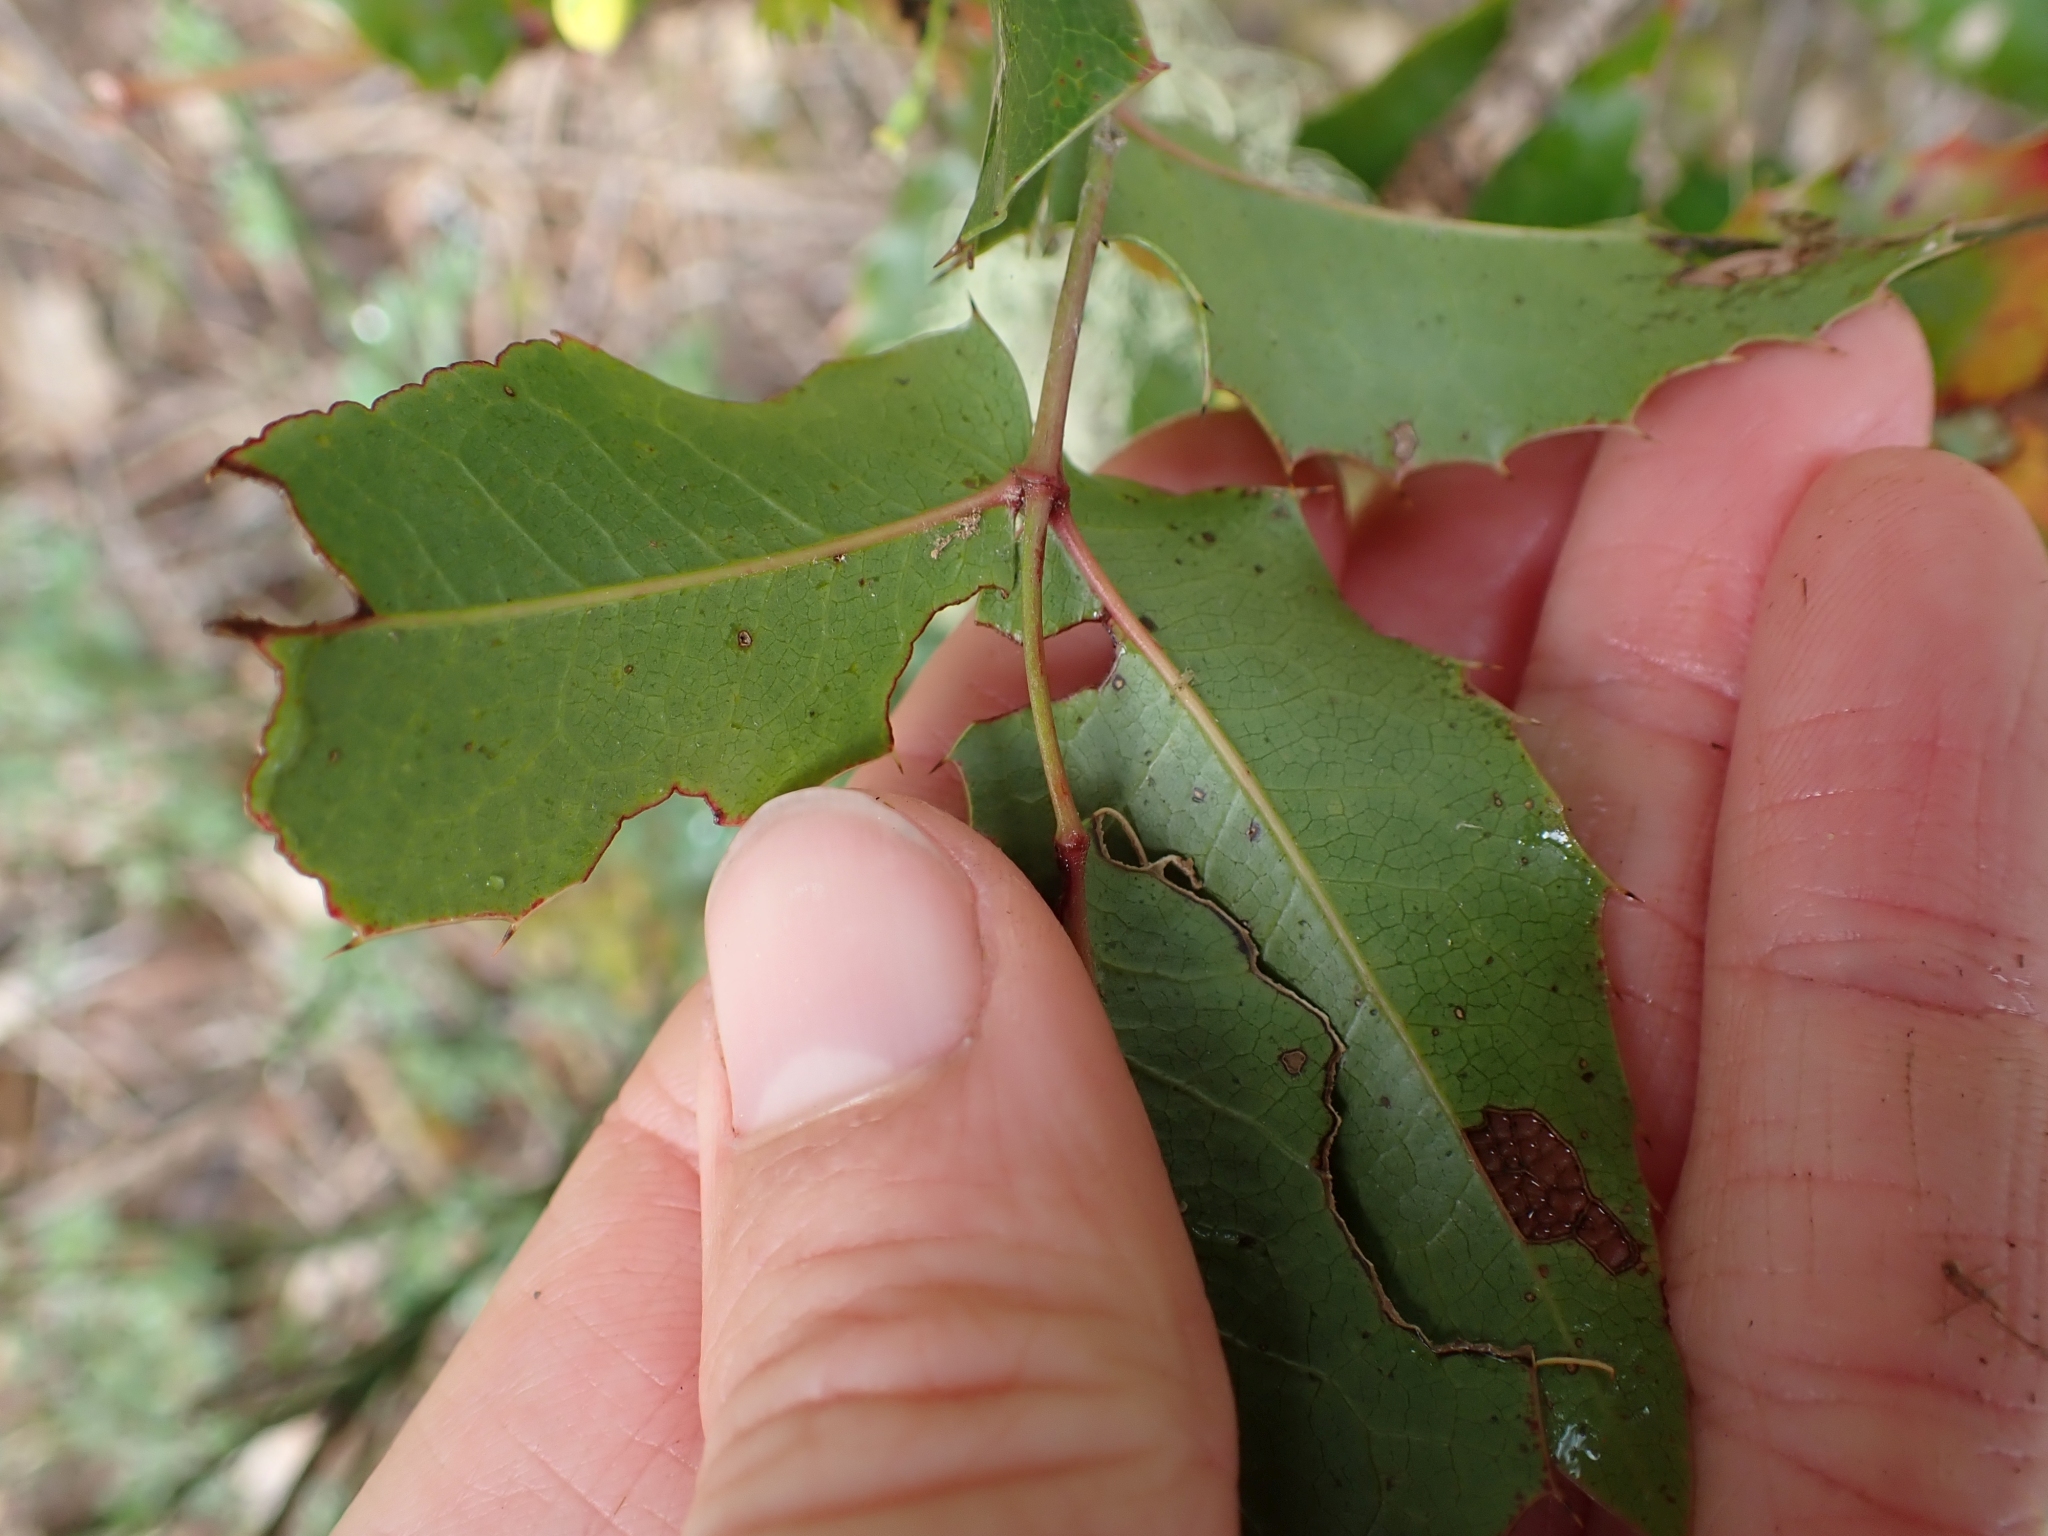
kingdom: Plantae
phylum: Tracheophyta
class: Magnoliopsida
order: Ranunculales
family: Berberidaceae
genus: Mahonia
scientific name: Mahonia aquifolium
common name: Oregon-grape
